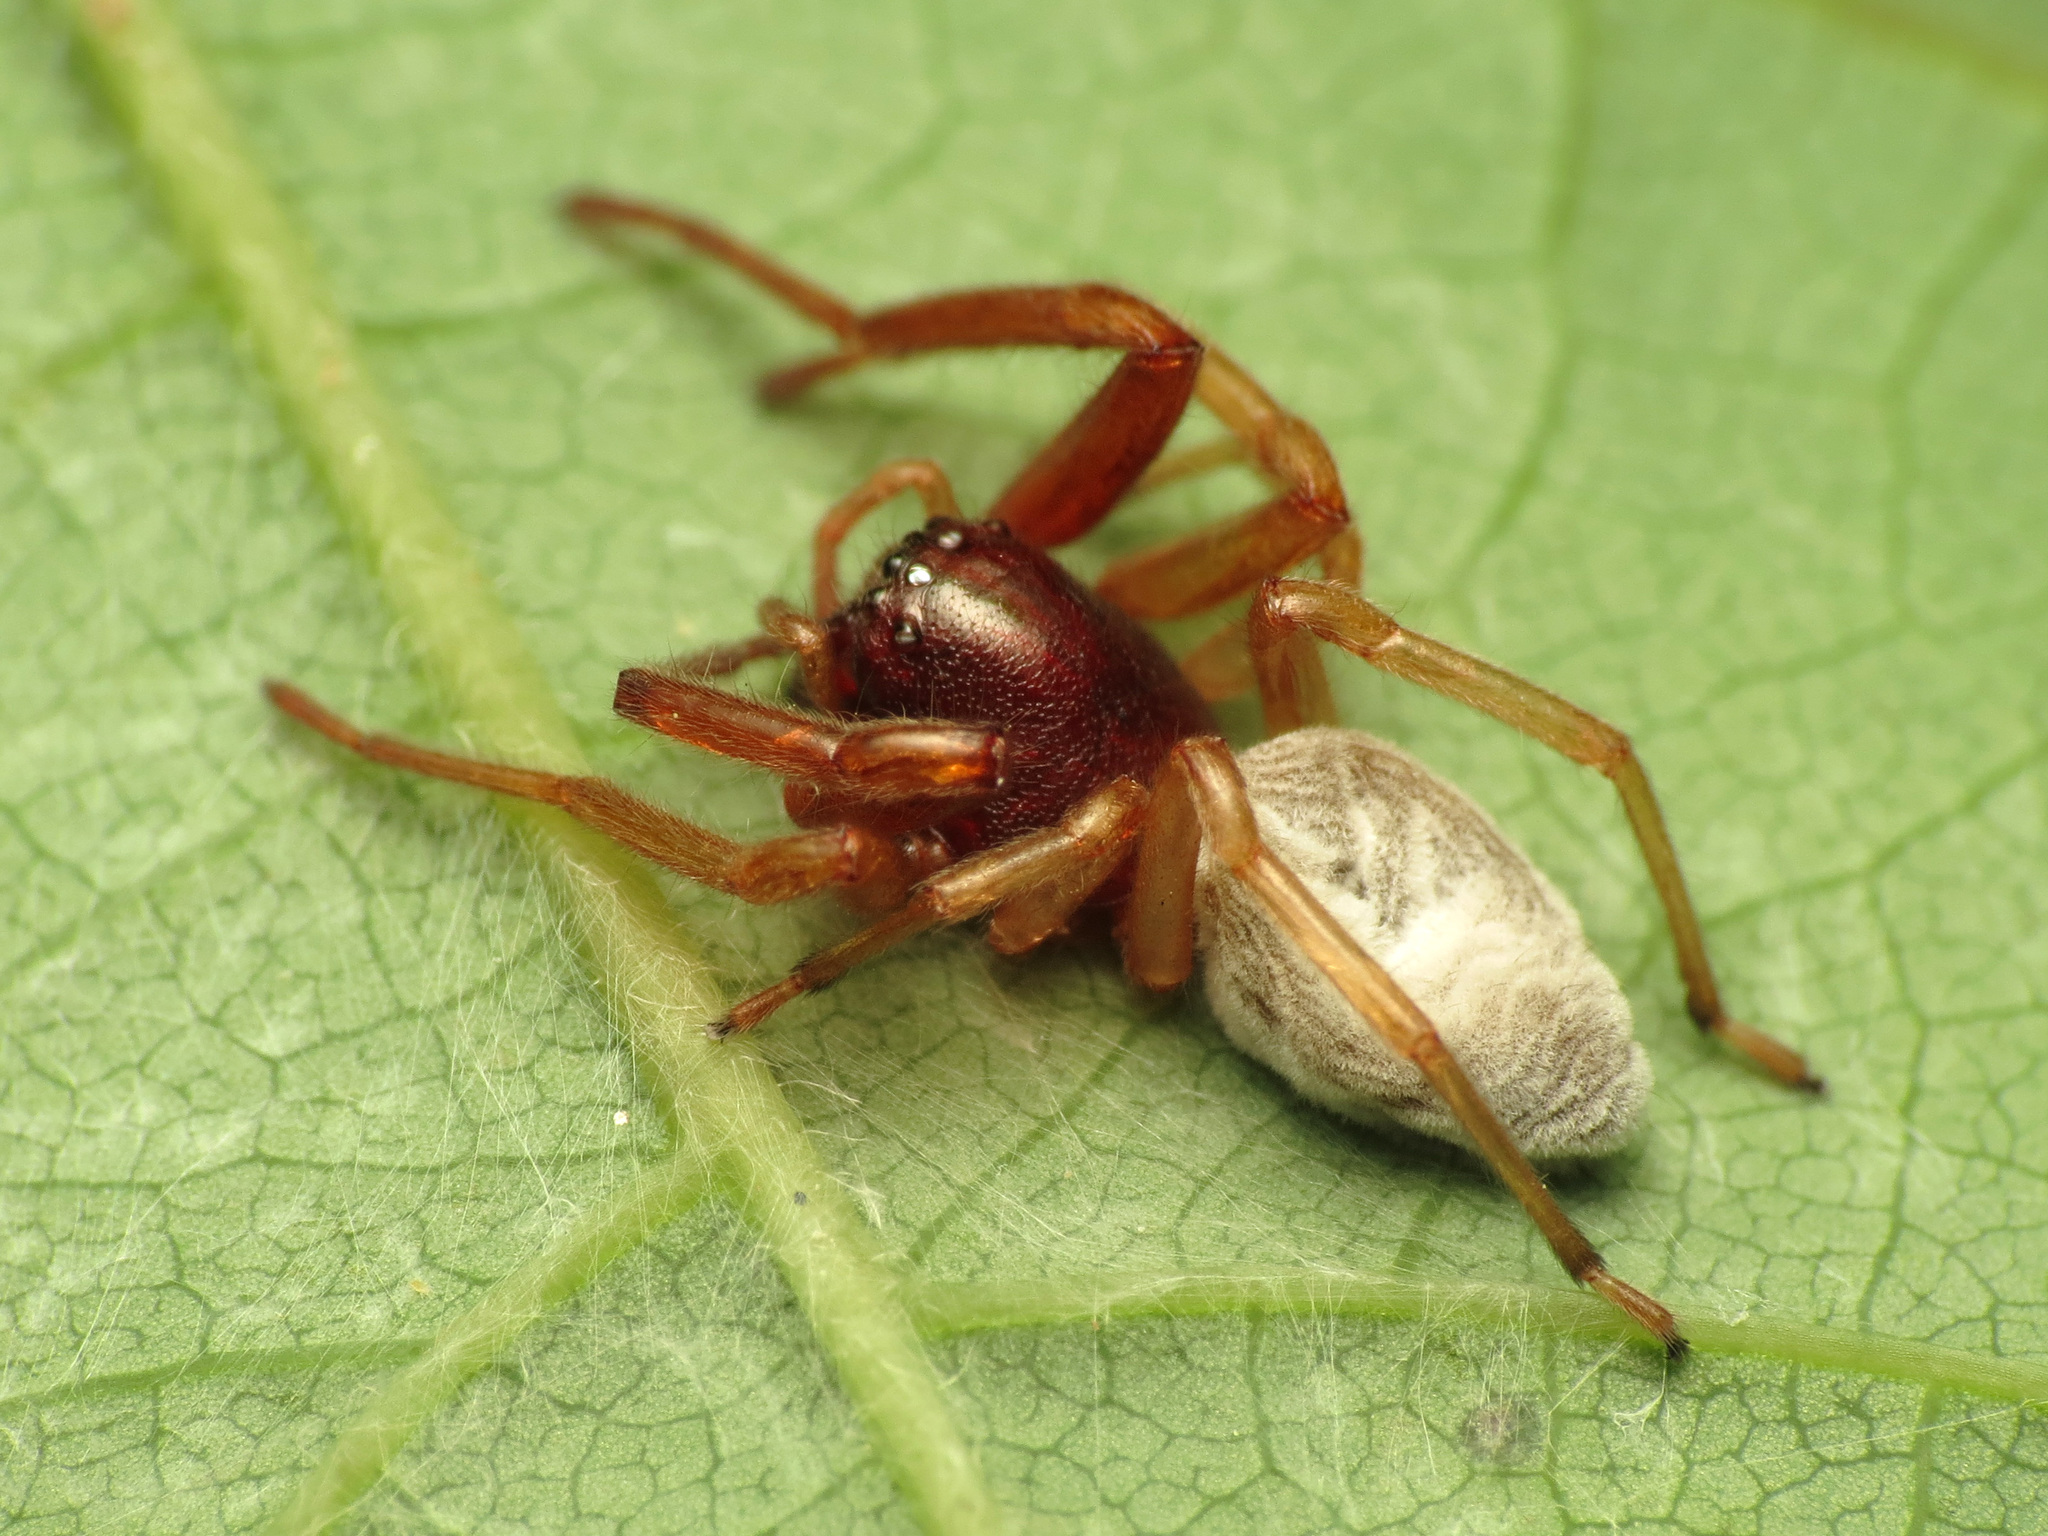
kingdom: Animalia
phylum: Arthropoda
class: Arachnida
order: Araneae
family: Trachelidae
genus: Trachelas
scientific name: Trachelas tranquillus
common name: Broad-faced sac spider
